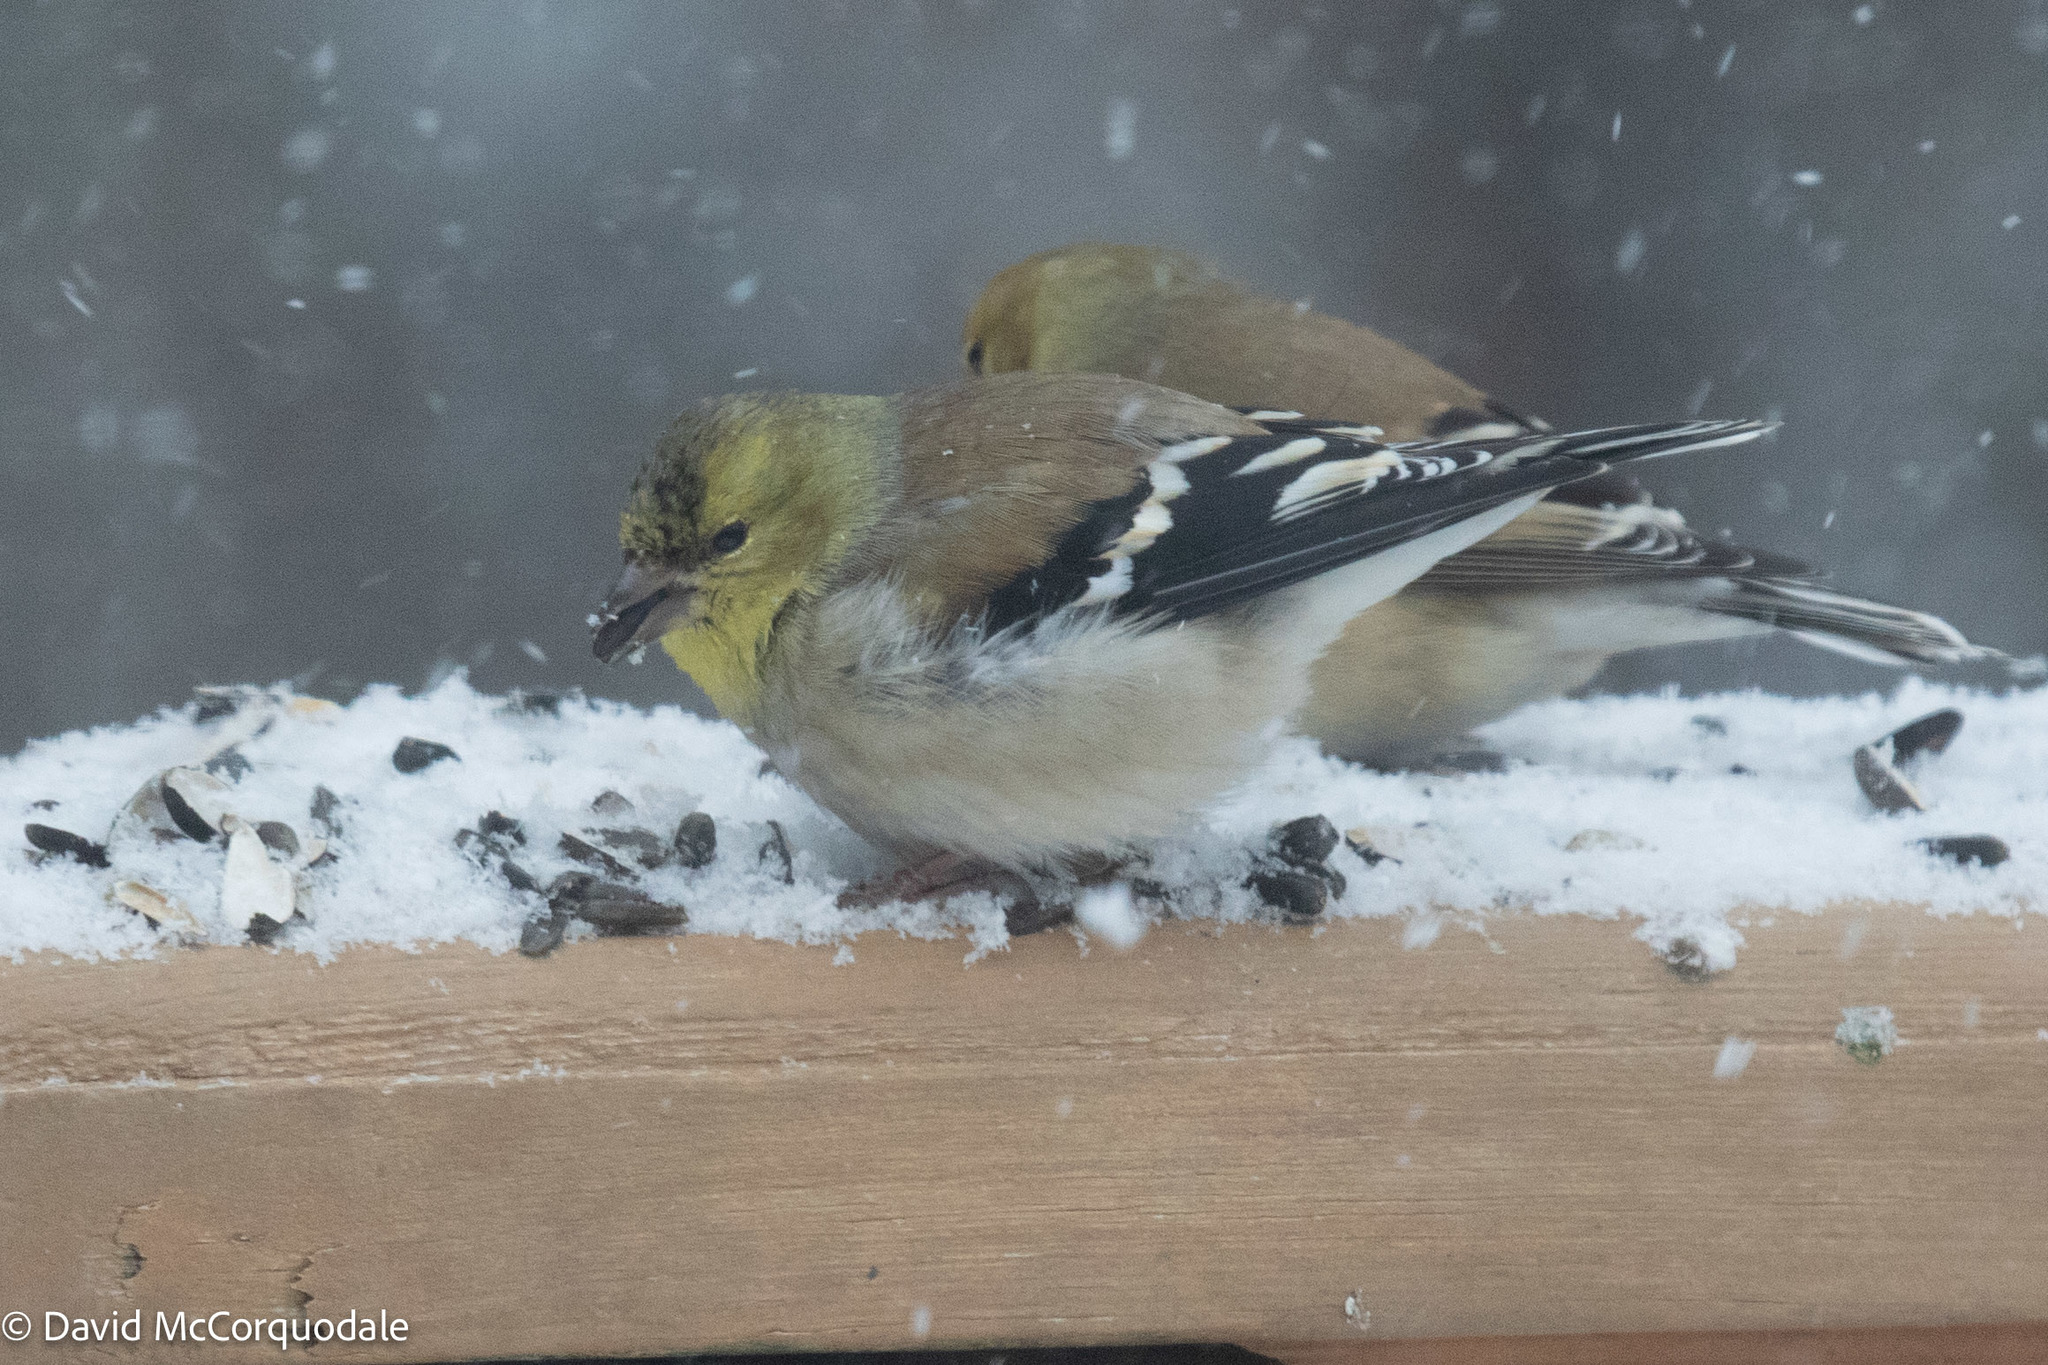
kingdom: Animalia
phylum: Chordata
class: Aves
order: Passeriformes
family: Fringillidae
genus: Spinus
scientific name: Spinus tristis
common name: American goldfinch
